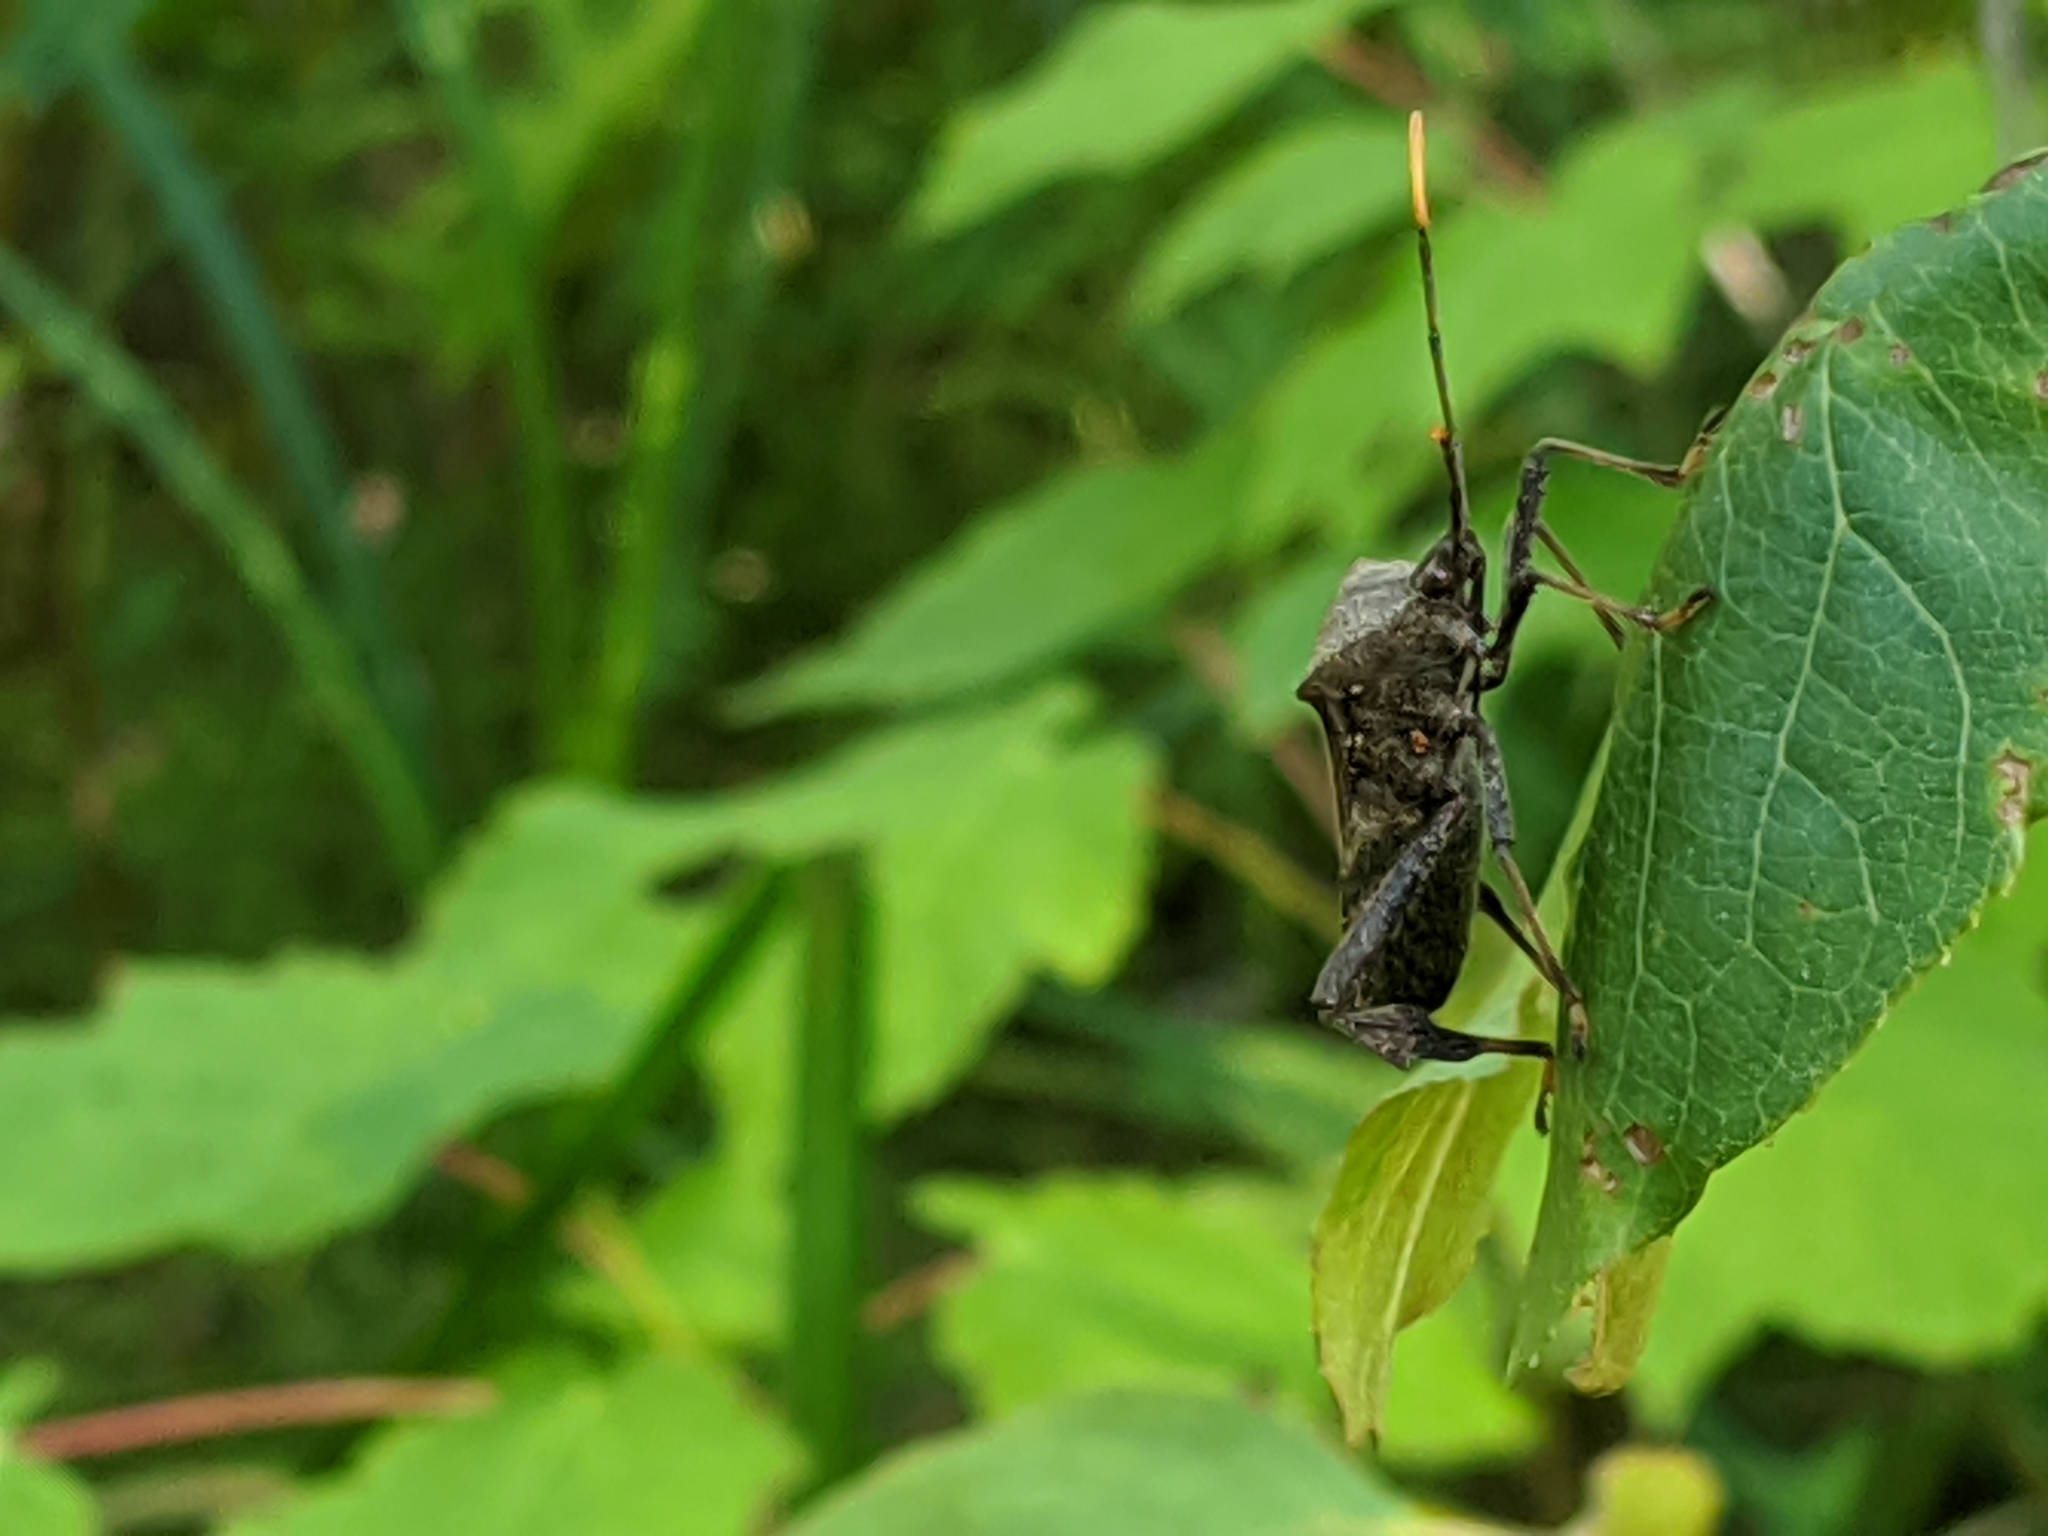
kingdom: Animalia
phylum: Arthropoda
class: Insecta
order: Hemiptera
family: Coreidae
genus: Acanthocephala
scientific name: Acanthocephala terminalis
